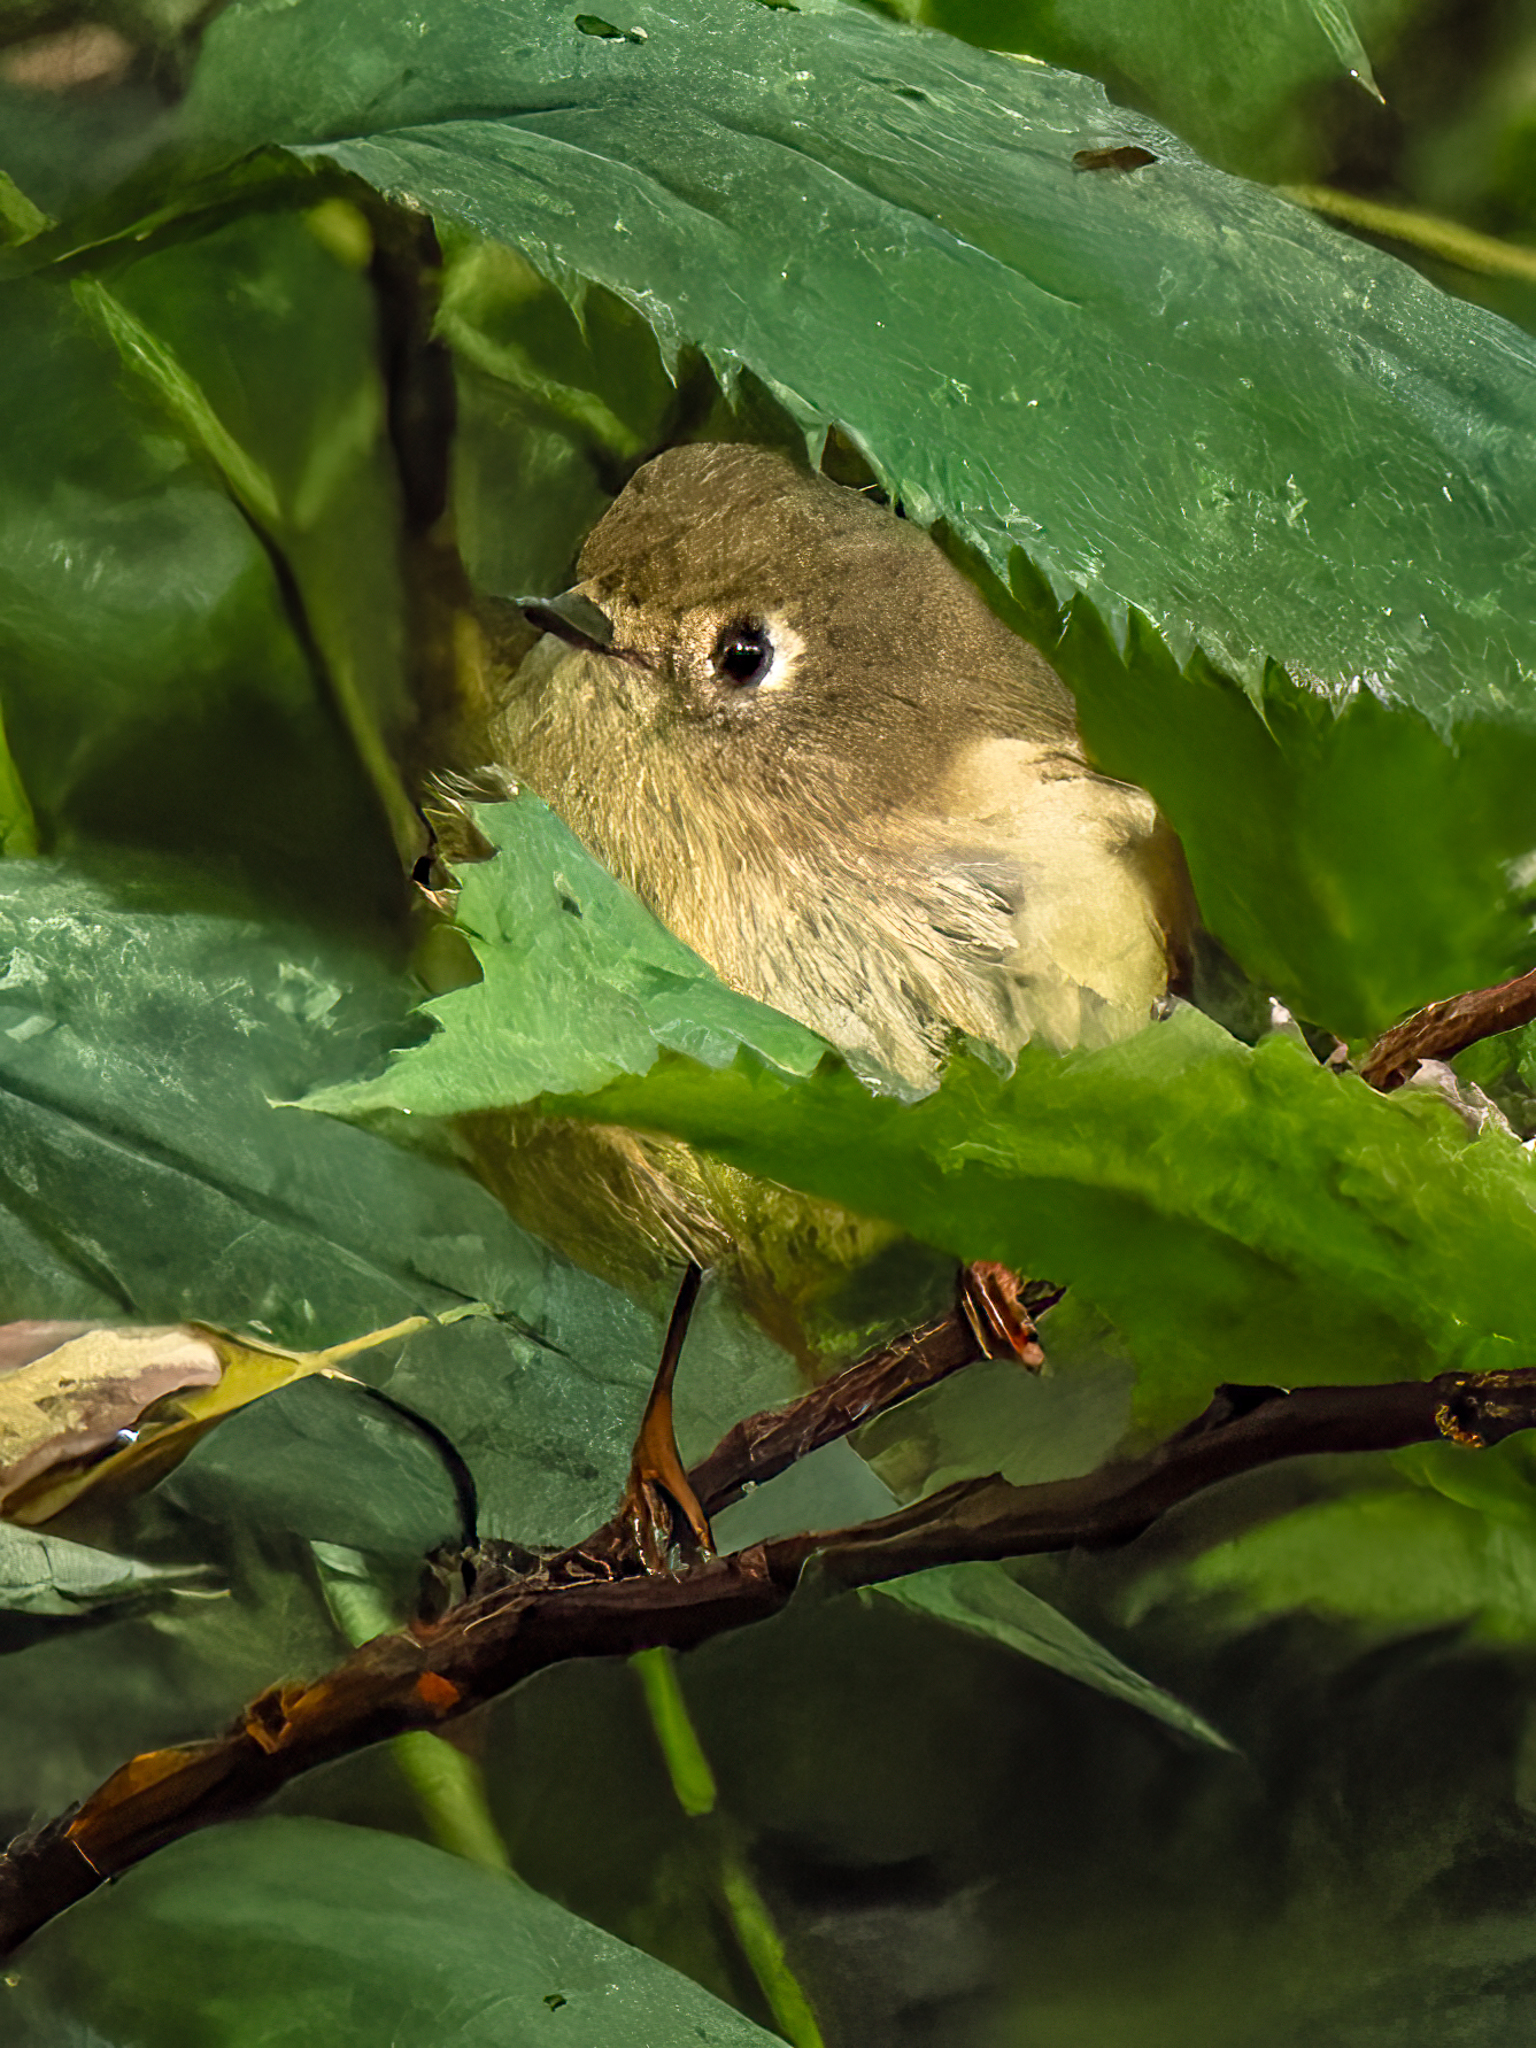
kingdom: Animalia
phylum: Chordata
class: Aves
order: Passeriformes
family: Regulidae
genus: Regulus
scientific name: Regulus calendula
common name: Ruby-crowned kinglet
